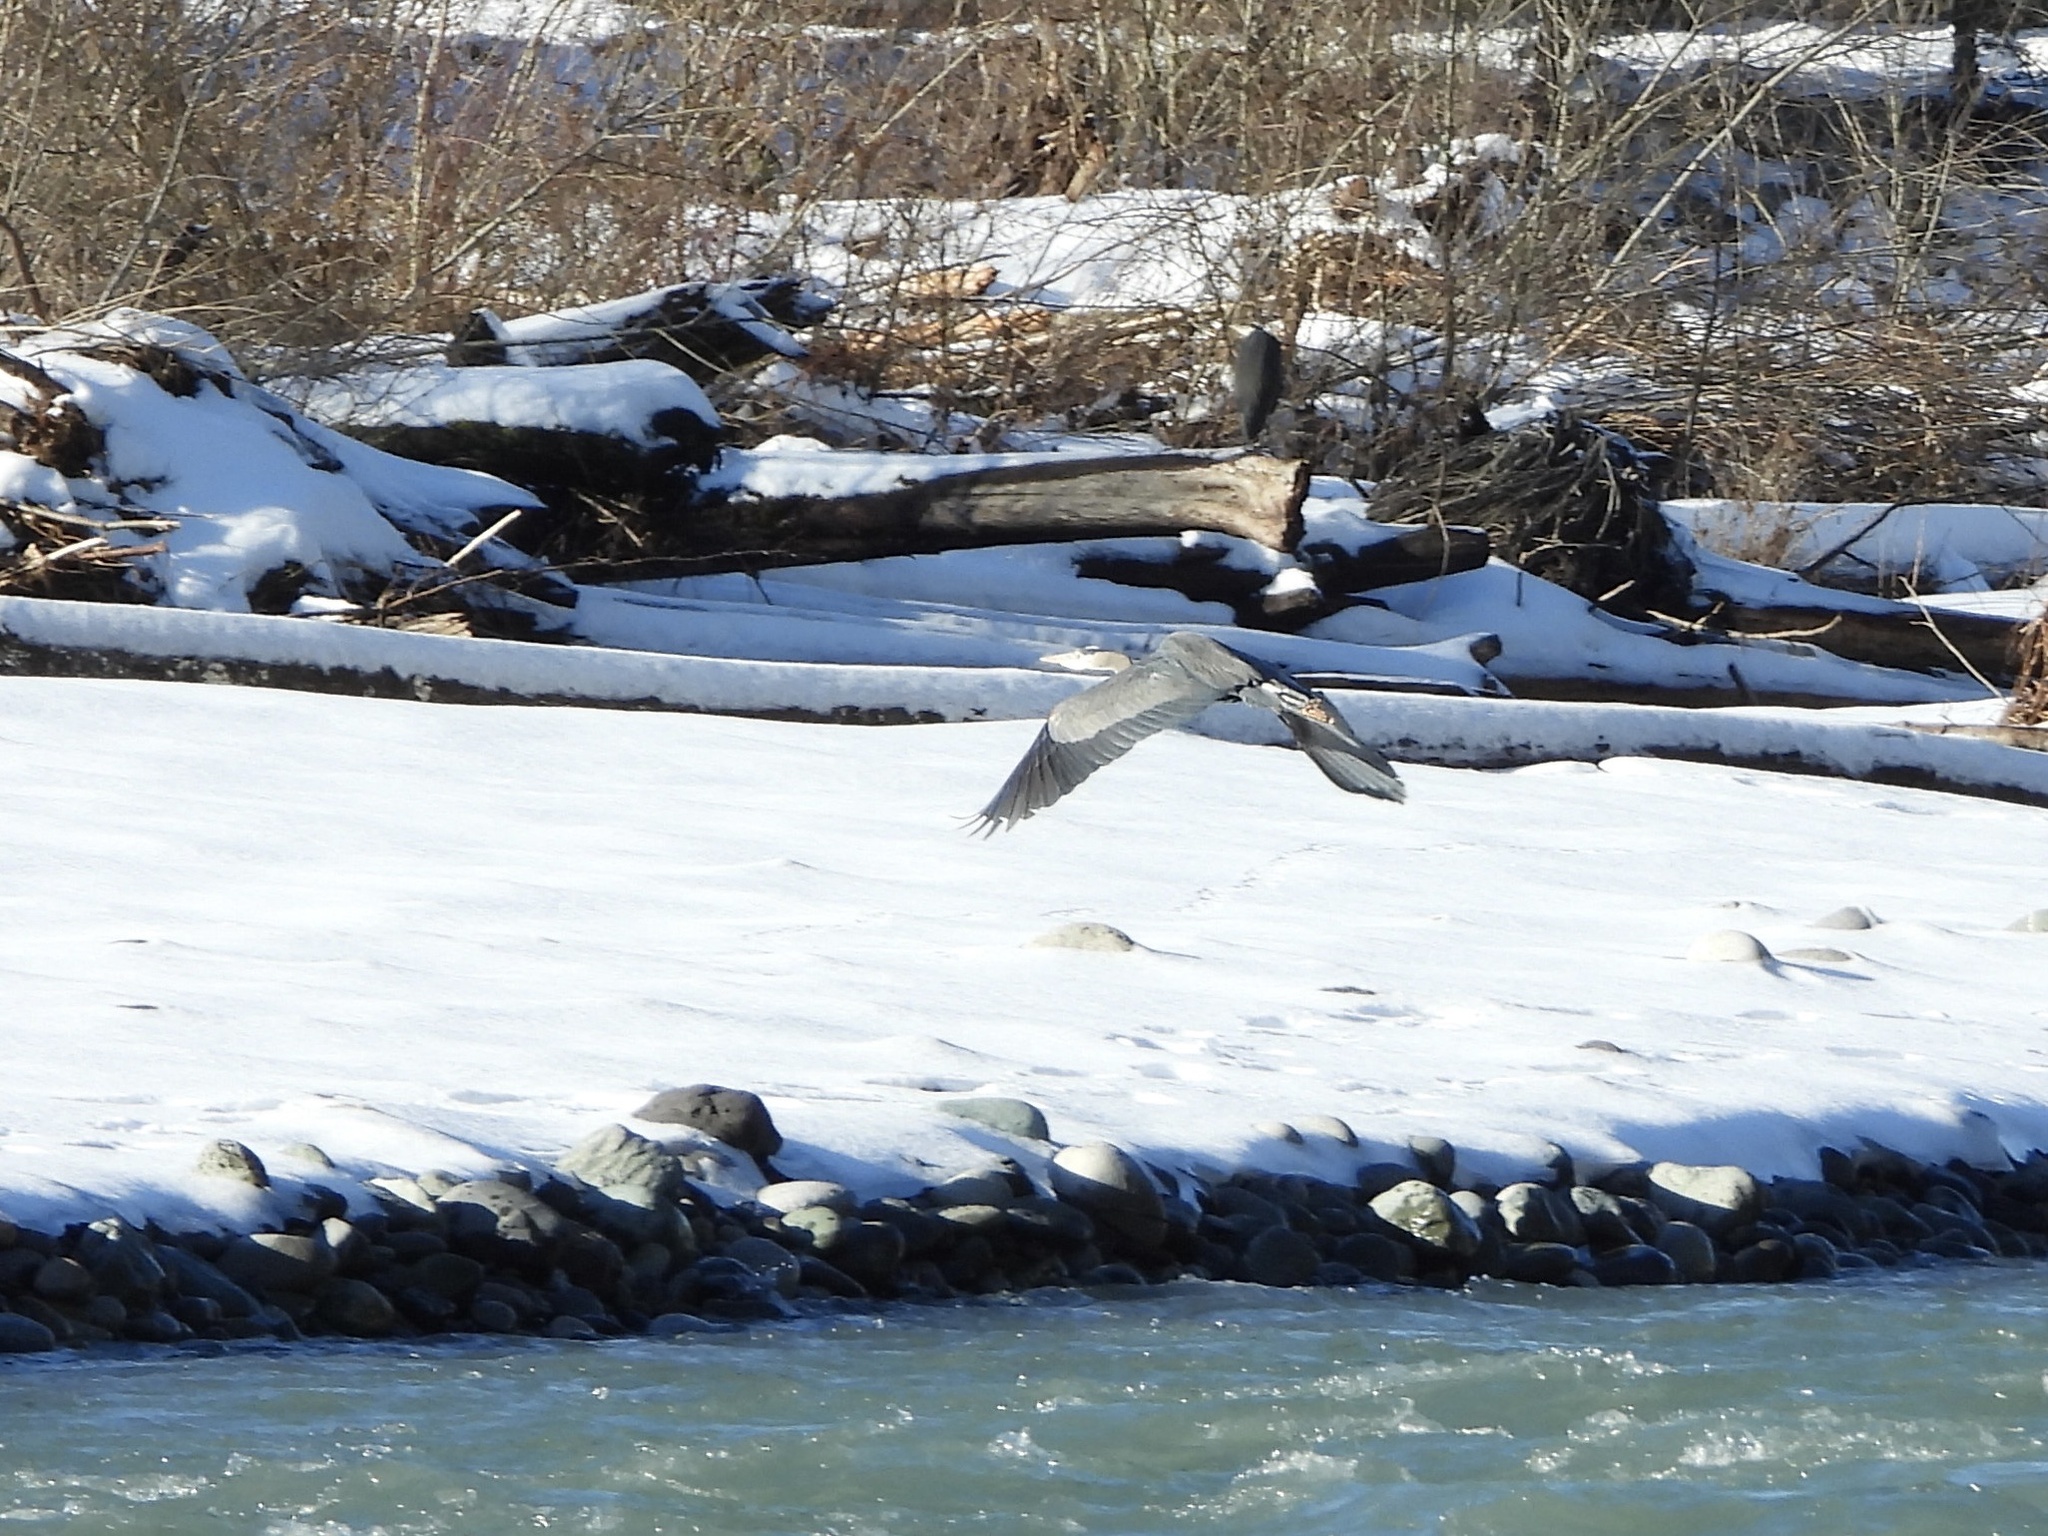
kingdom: Animalia
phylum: Chordata
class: Aves
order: Pelecaniformes
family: Ardeidae
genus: Ardea
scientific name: Ardea herodias
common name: Great blue heron
